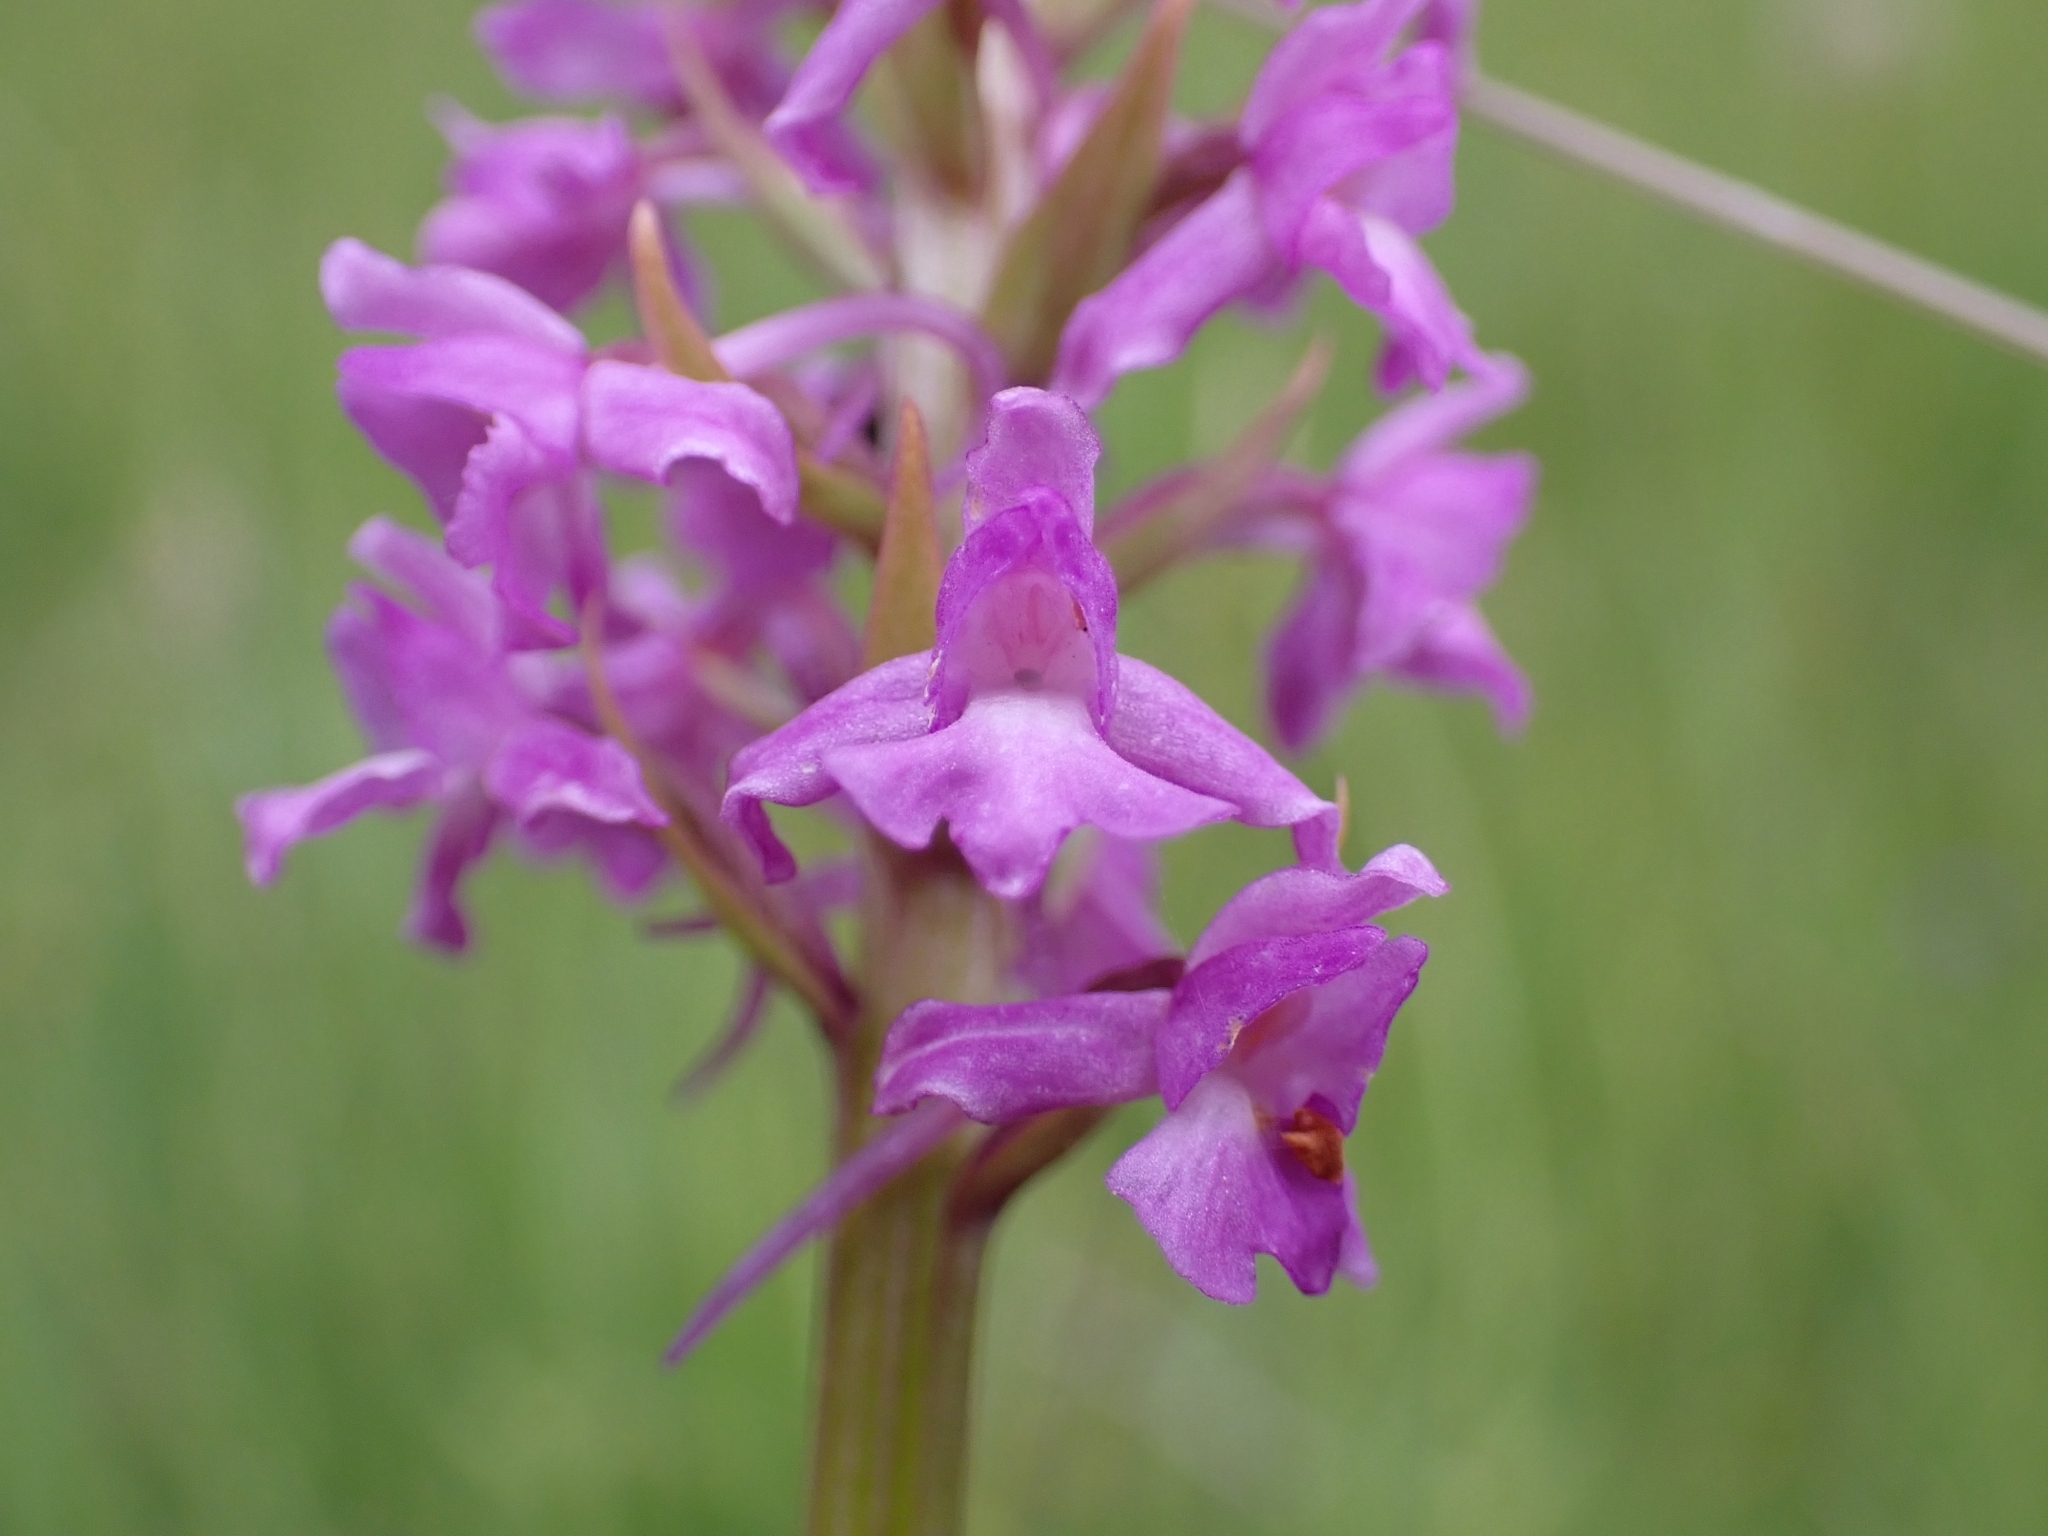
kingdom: Plantae
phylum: Tracheophyta
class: Liliopsida
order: Asparagales
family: Orchidaceae
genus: Gymnadenia
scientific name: Gymnadenia conopsea
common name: Fragrant orchid
